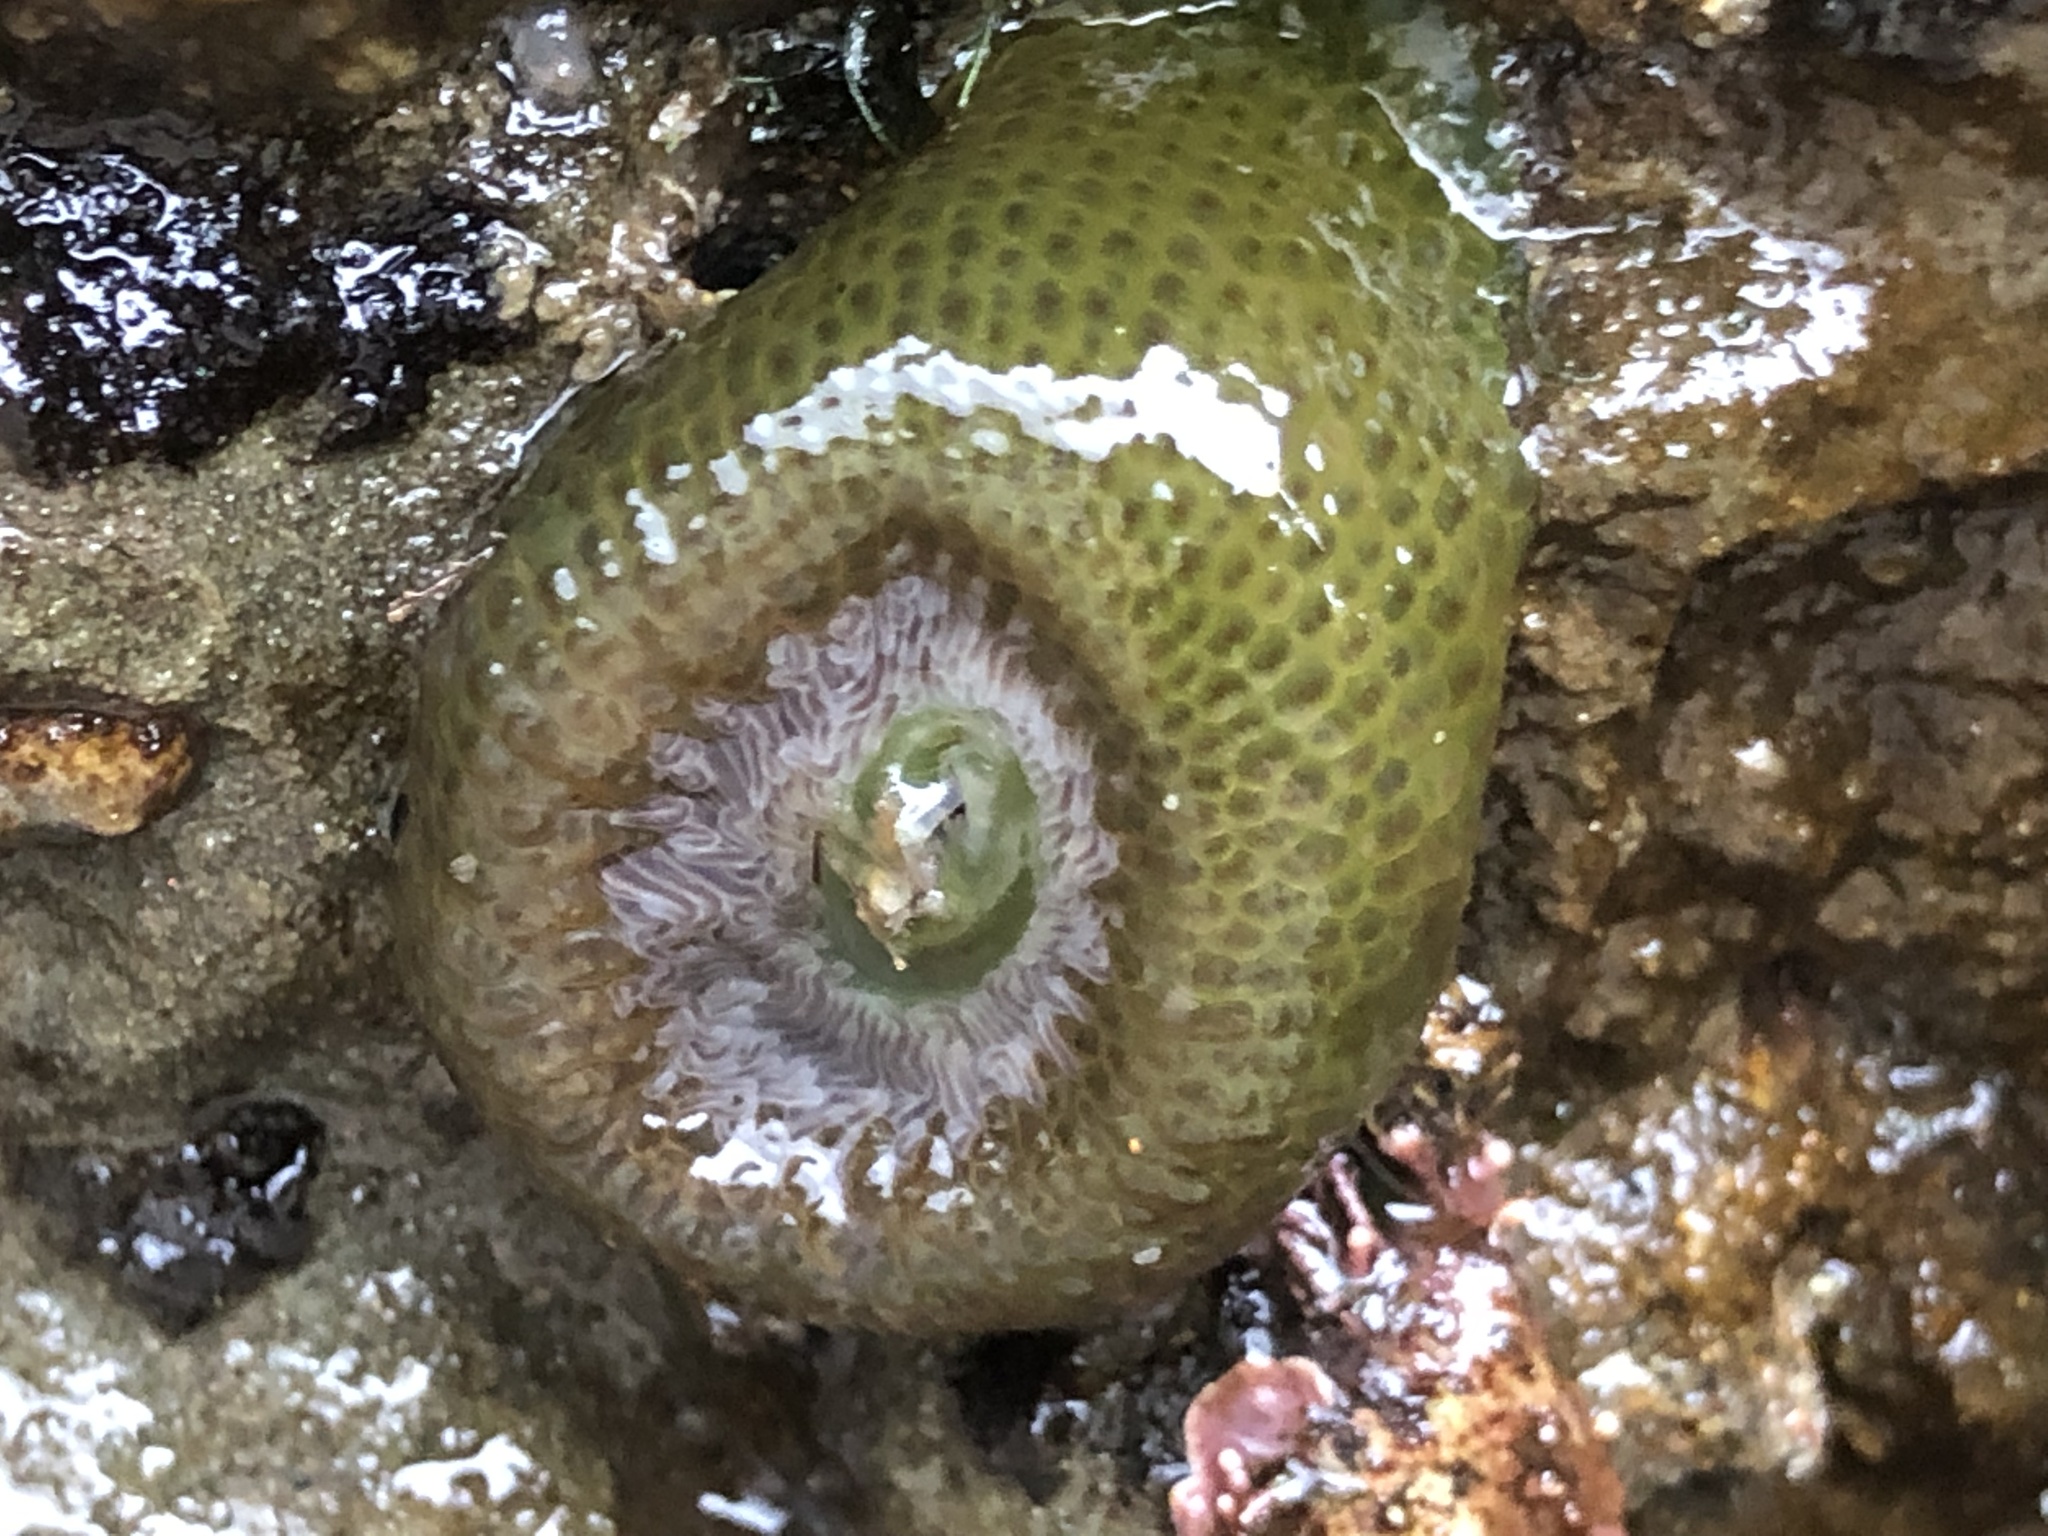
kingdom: Animalia
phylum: Cnidaria
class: Anthozoa
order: Actiniaria
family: Actiniidae
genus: Anthopleura
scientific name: Anthopleura elegantissima
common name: Clonal anemone
